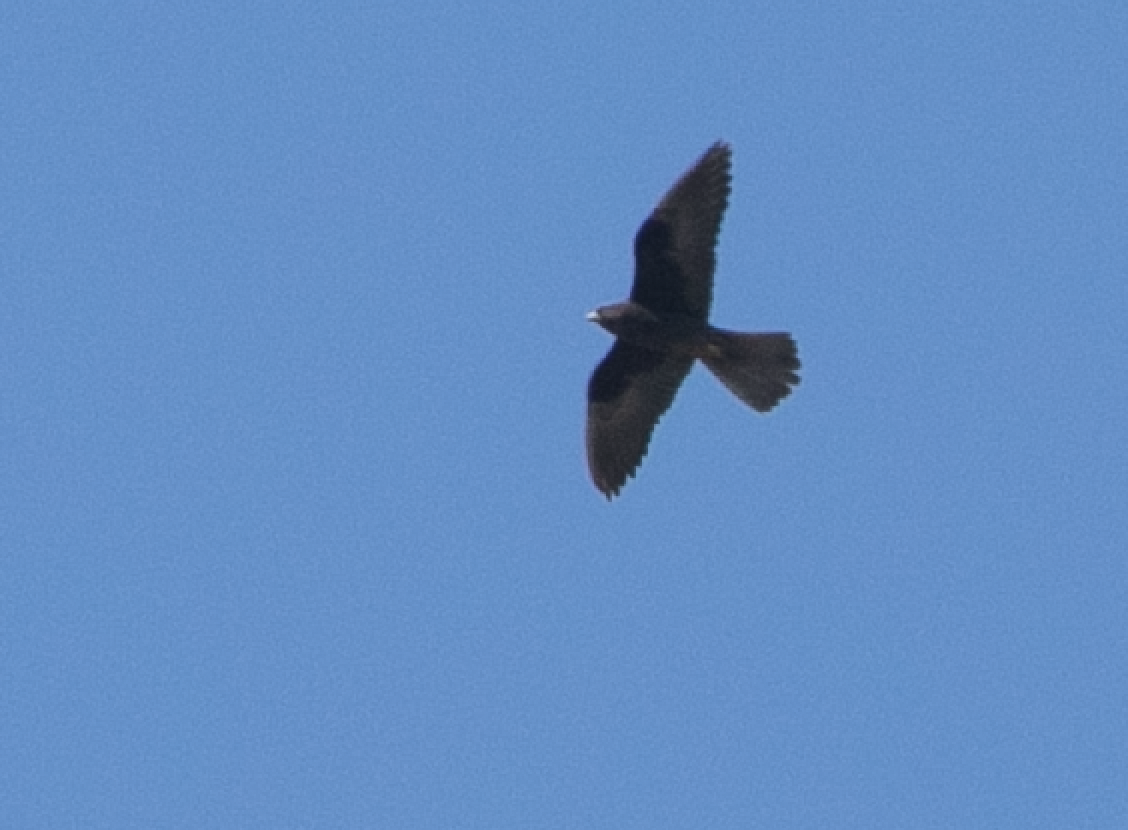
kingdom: Animalia
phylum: Chordata
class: Aves
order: Falconiformes
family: Falconidae
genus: Falco
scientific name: Falco eleonorae
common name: Eleonora's falcon
